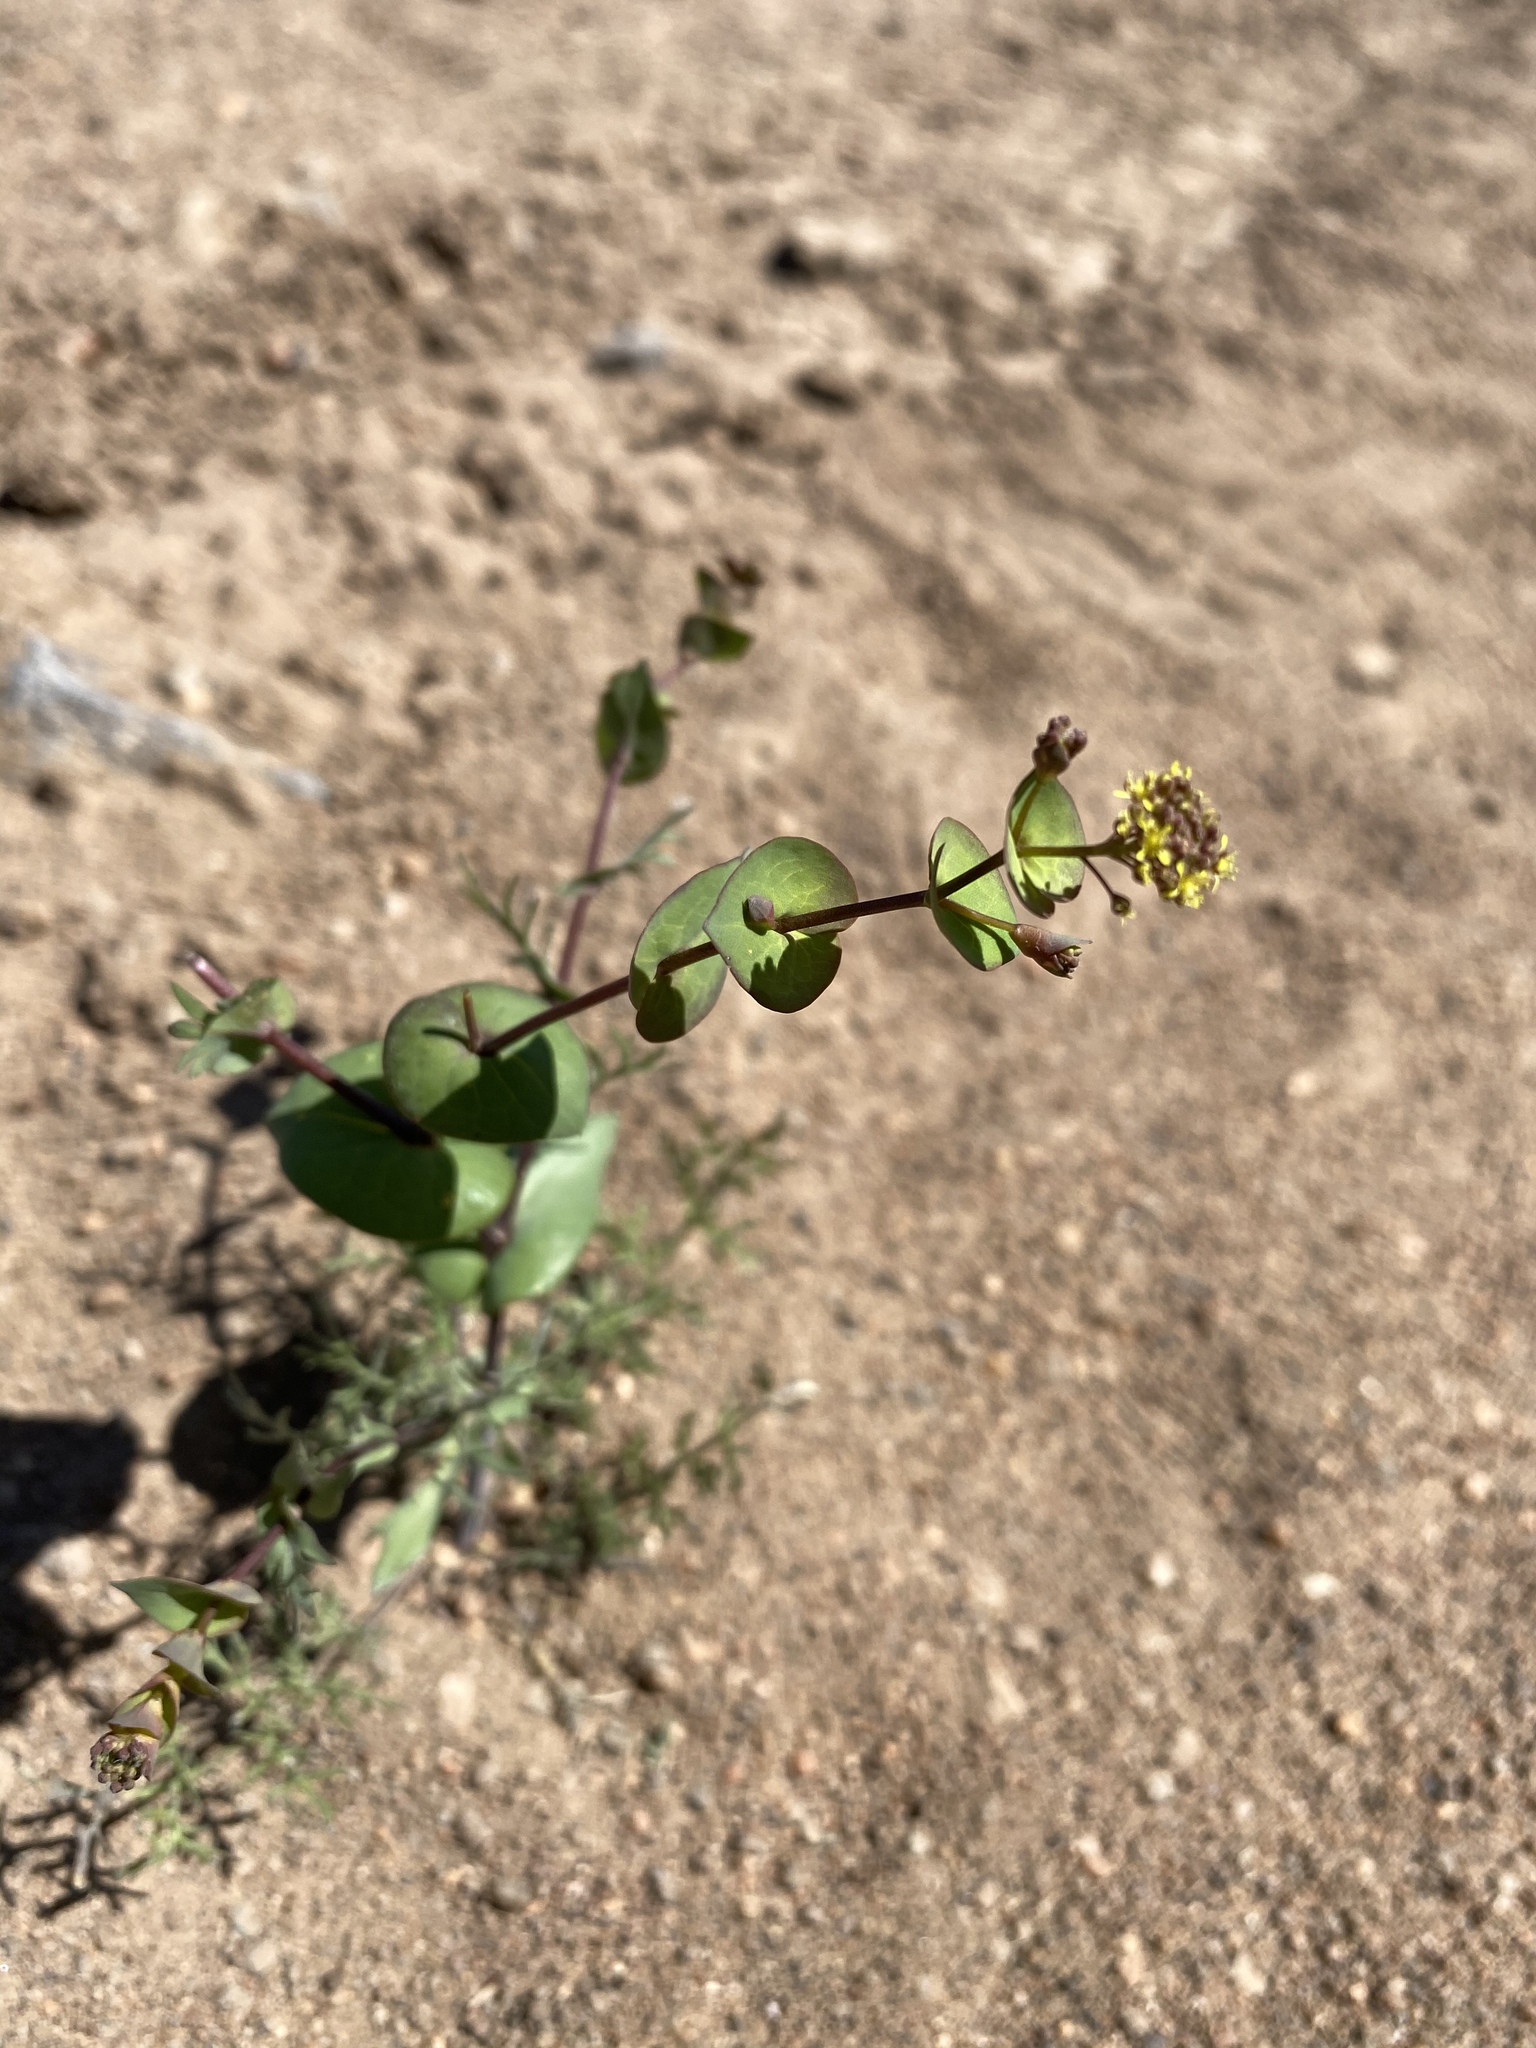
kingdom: Plantae
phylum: Tracheophyta
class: Magnoliopsida
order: Brassicales
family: Brassicaceae
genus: Lepidium
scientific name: Lepidium perfoliatum
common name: Perfoliate pepperwort
